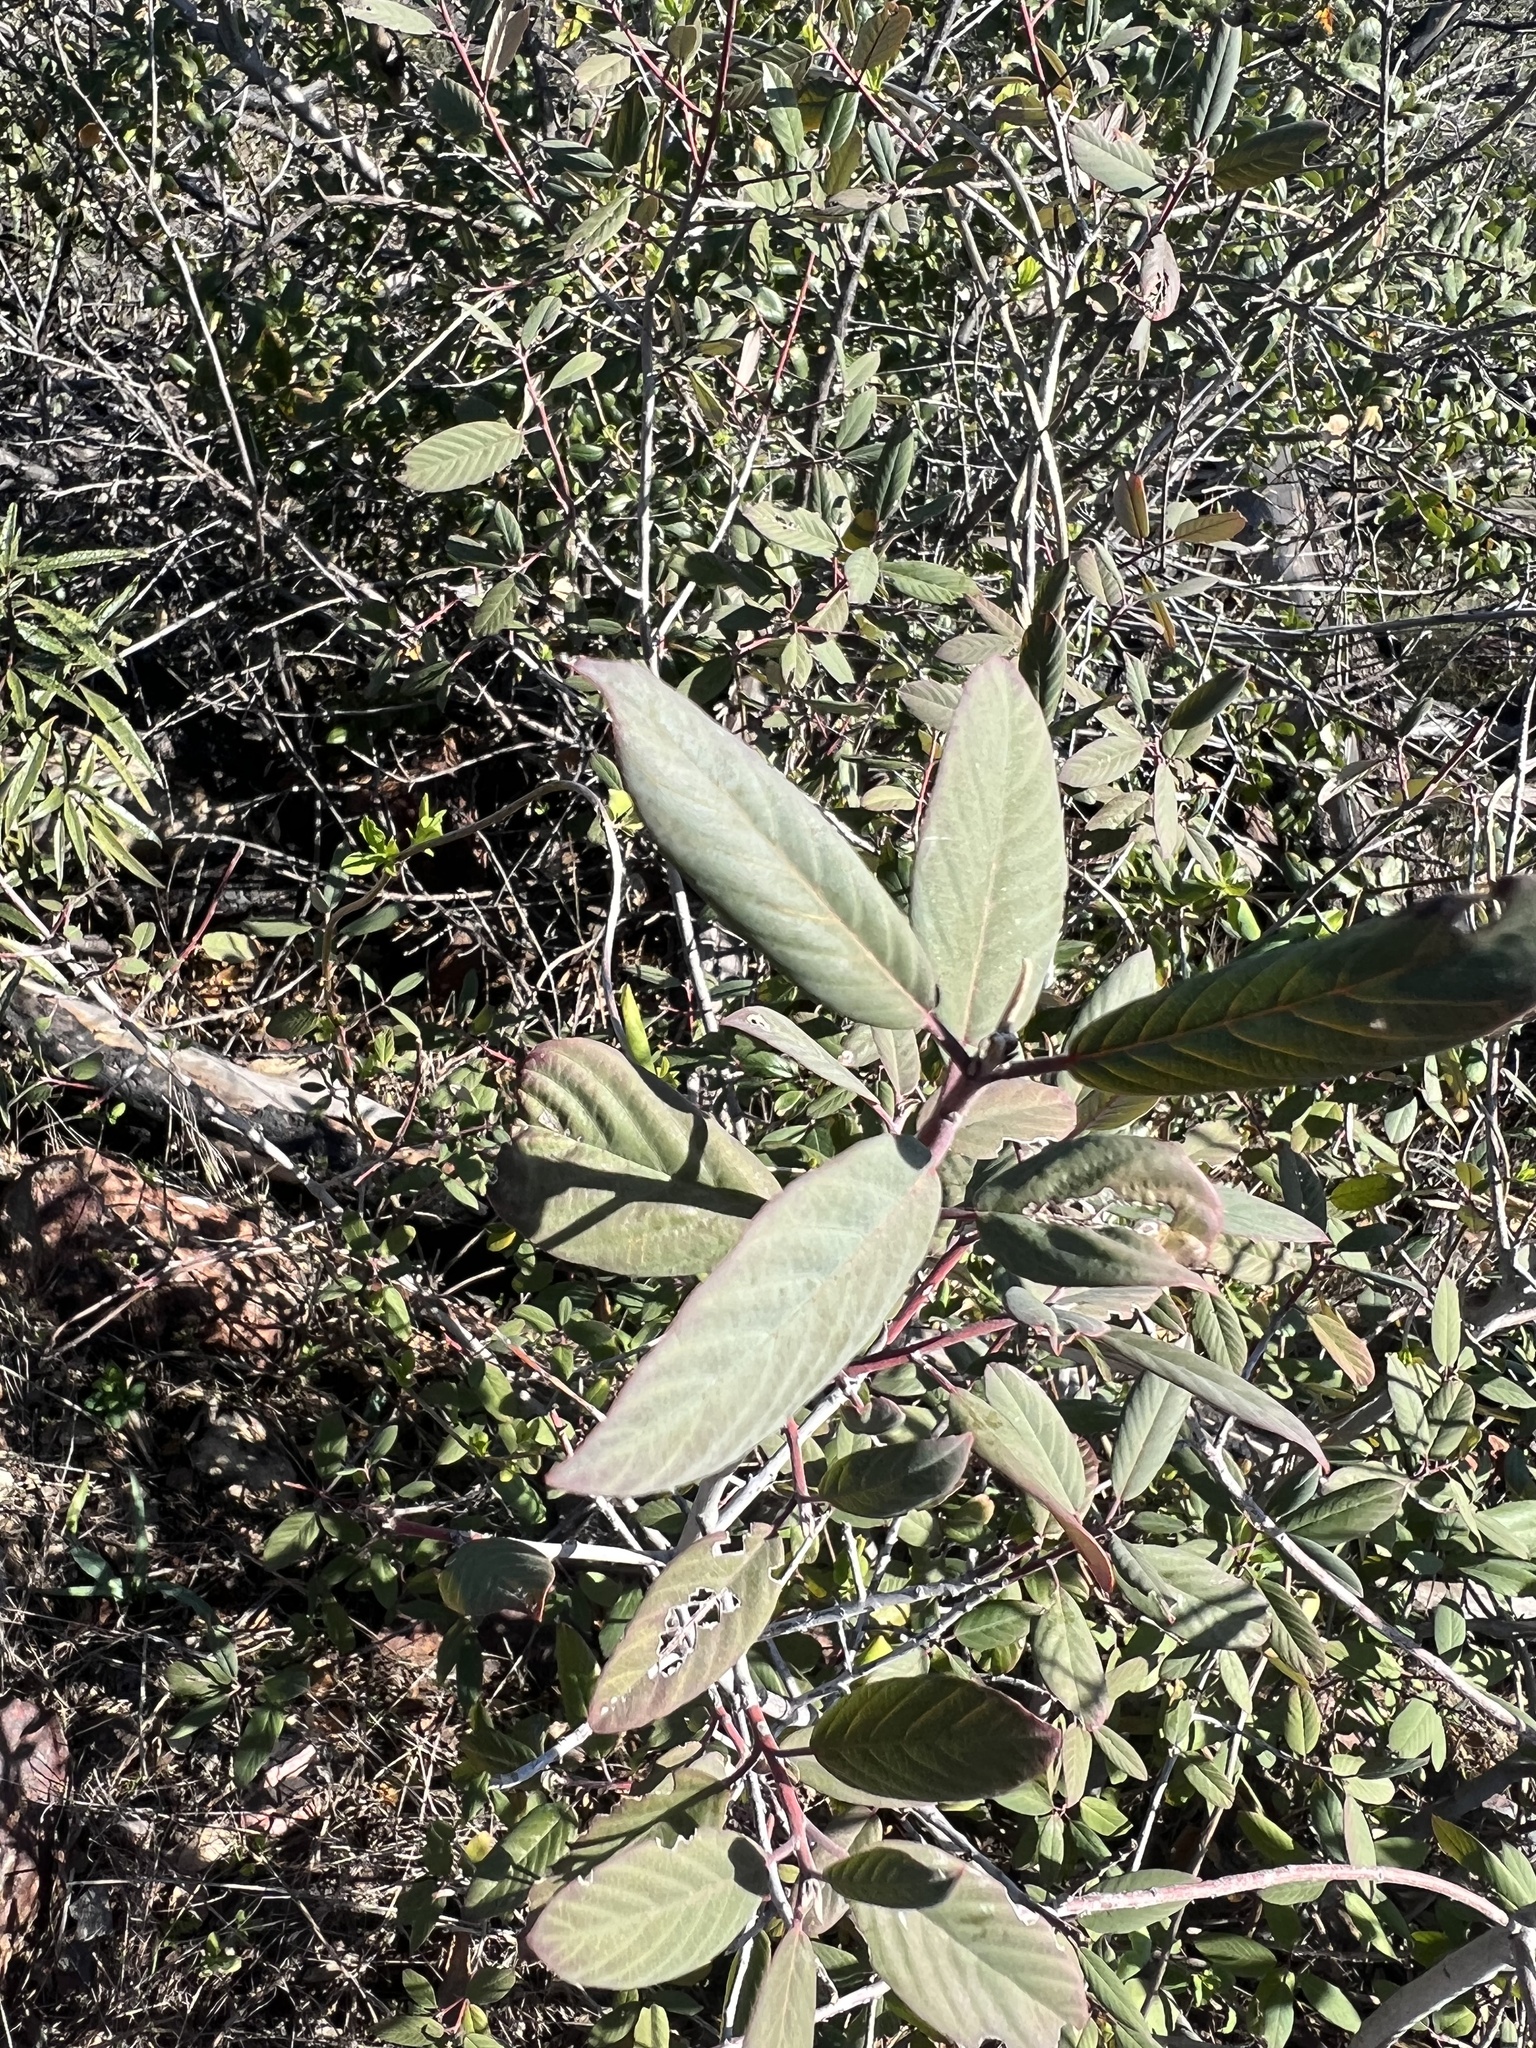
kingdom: Plantae
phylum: Tracheophyta
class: Magnoliopsida
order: Rosales
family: Rhamnaceae
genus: Frangula
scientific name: Frangula californica
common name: California buckthorn
